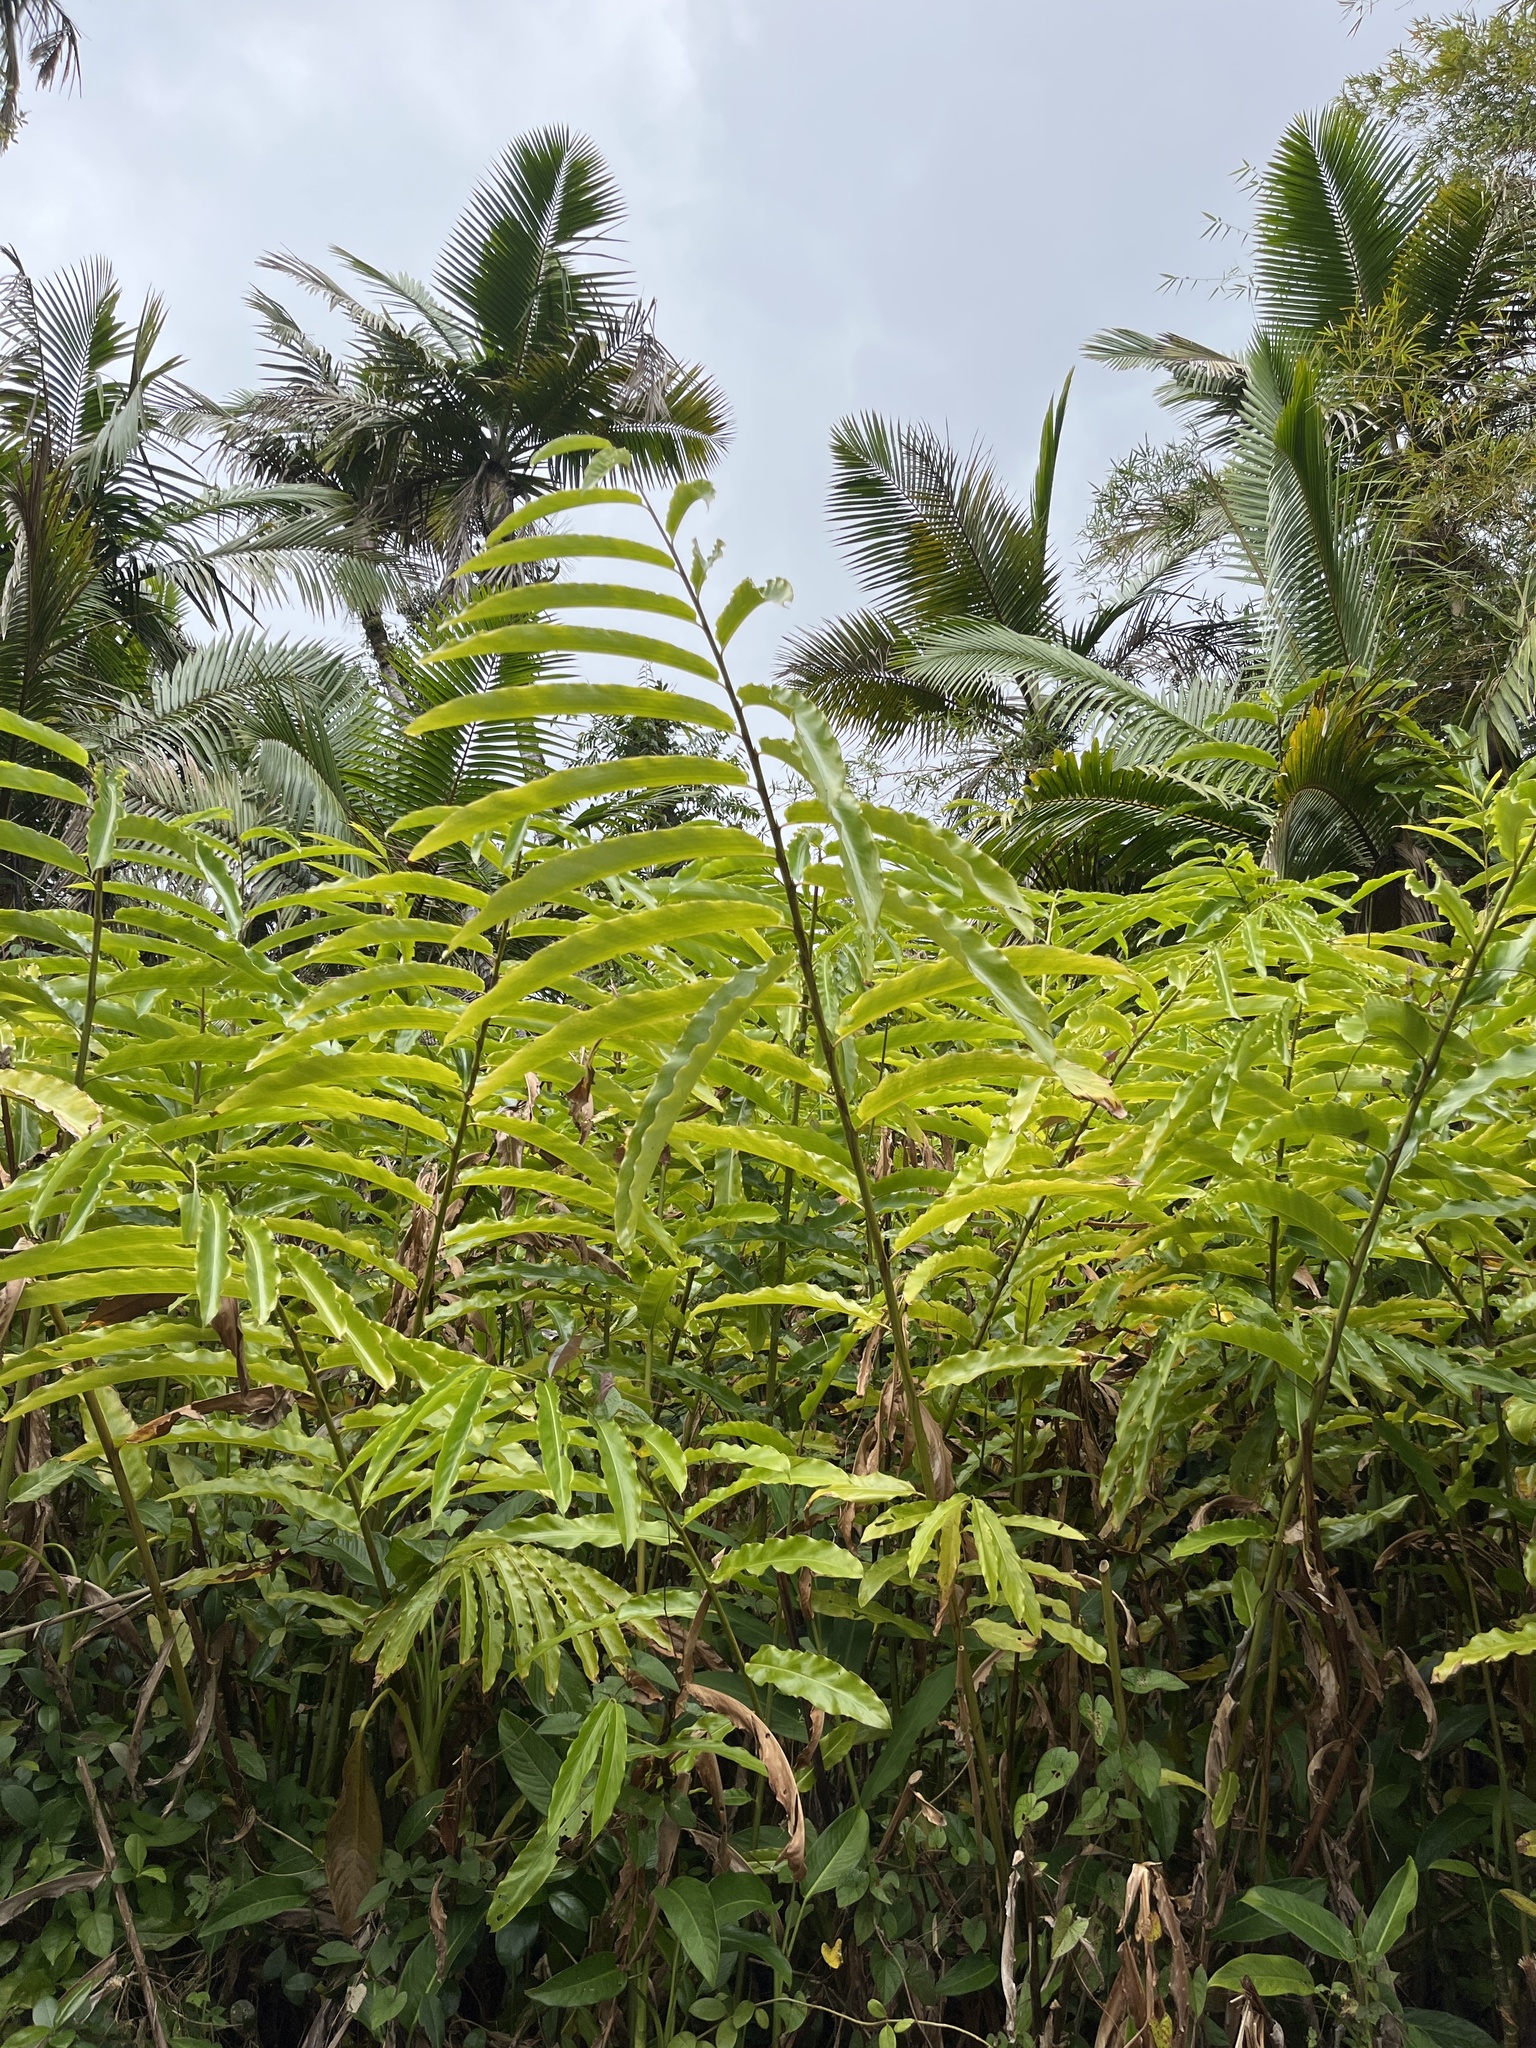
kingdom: Plantae
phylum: Tracheophyta
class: Liliopsida
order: Zingiberales
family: Zingiberaceae
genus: Hedychium
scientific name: Hedychium coronarium
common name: White garland-lily
